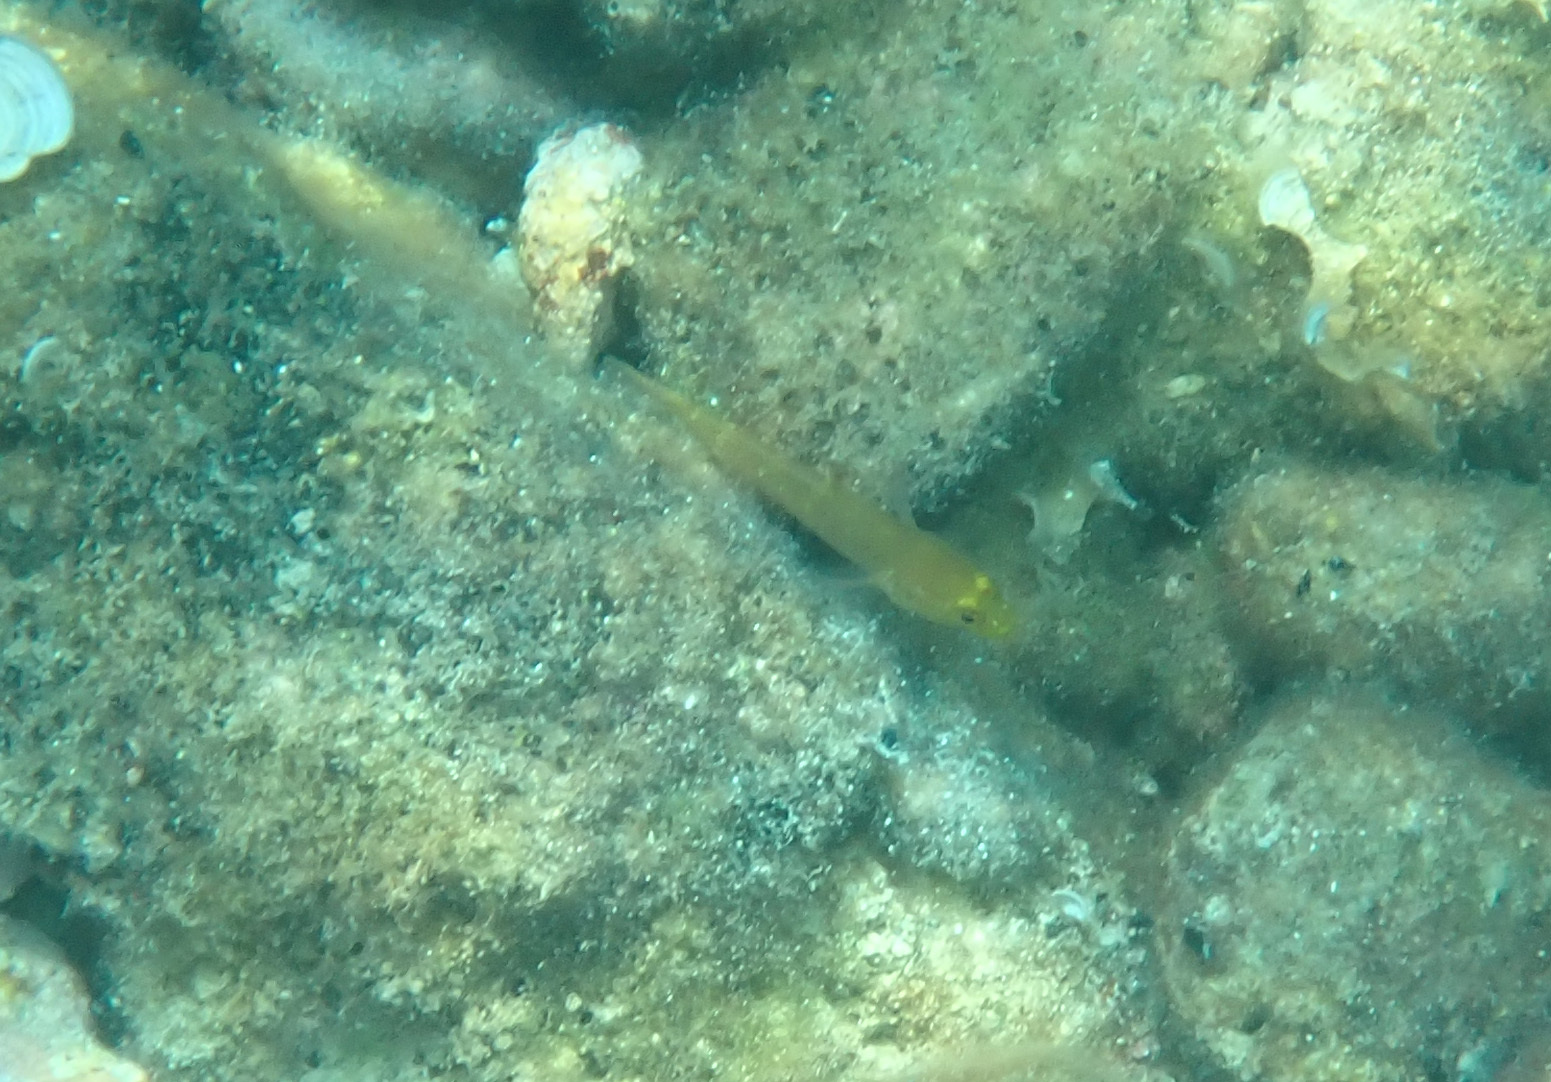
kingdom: Animalia
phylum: Chordata
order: Perciformes
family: Gobiidae
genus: Gobius
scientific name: Gobius auratus
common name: Golden goby
